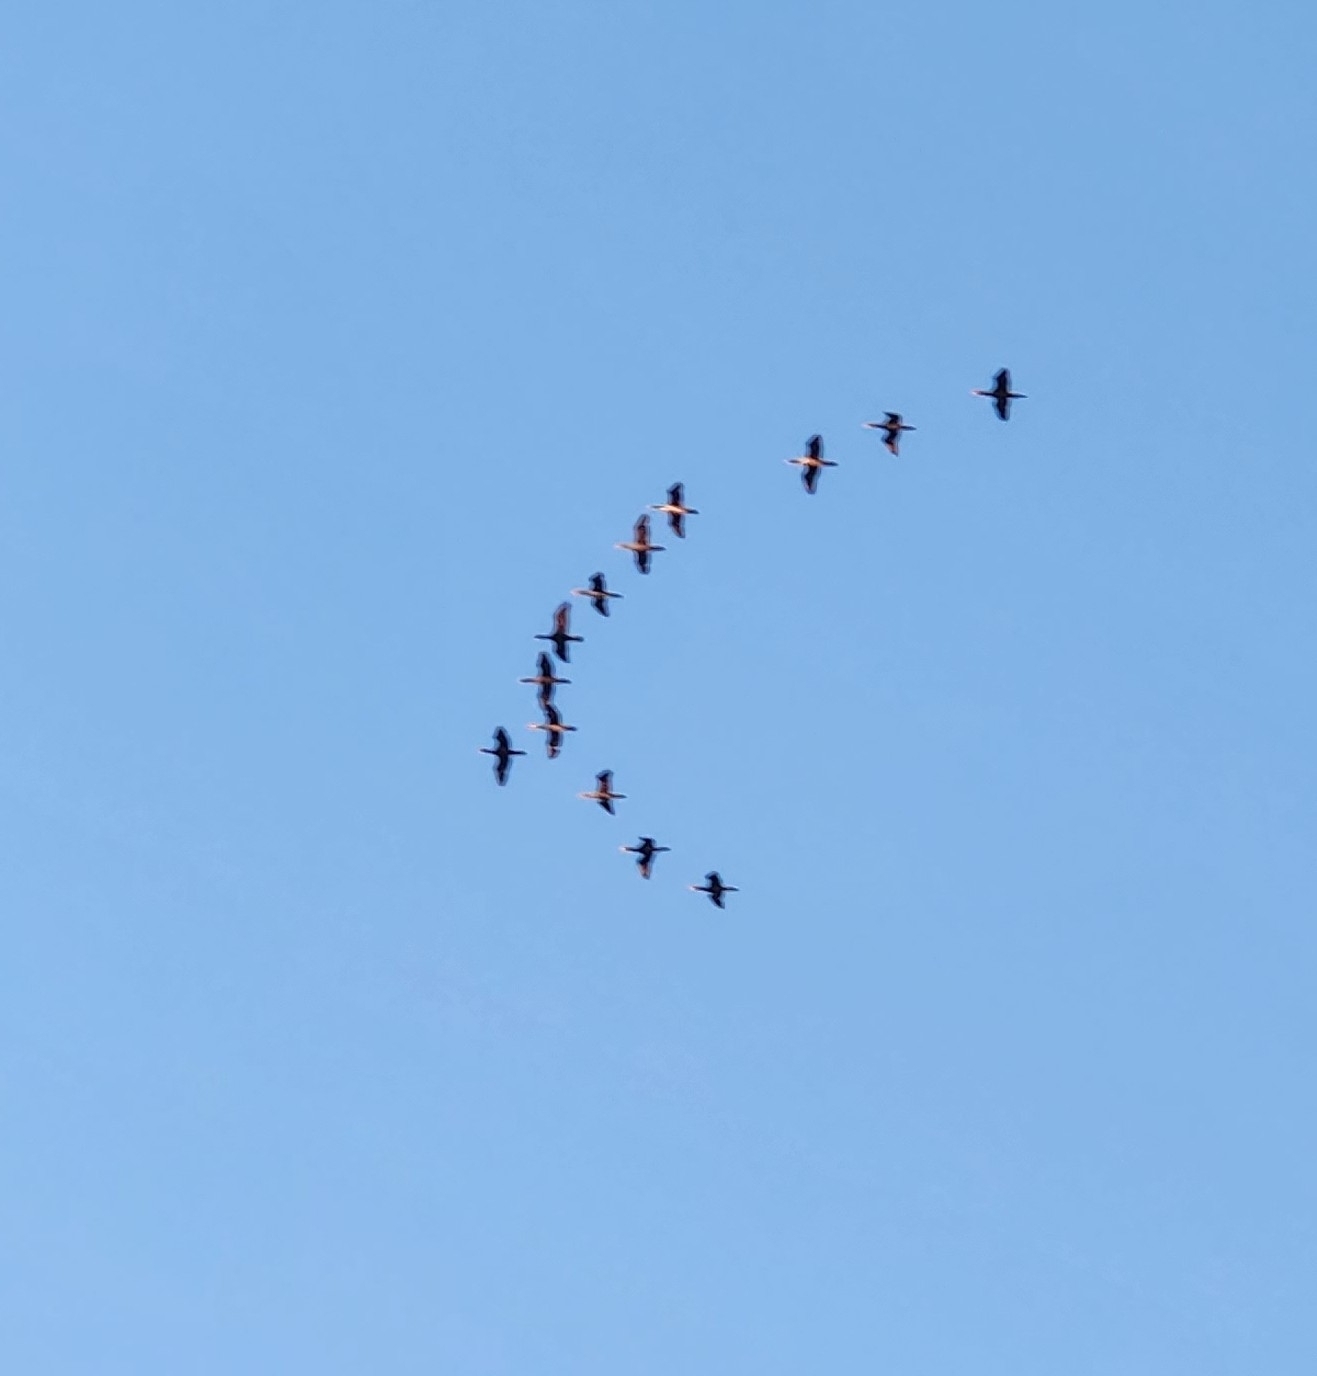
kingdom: Animalia
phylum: Chordata
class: Aves
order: Suliformes
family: Phalacrocoracidae
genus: Phalacrocorax
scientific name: Phalacrocorax auritus
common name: Double-crested cormorant
